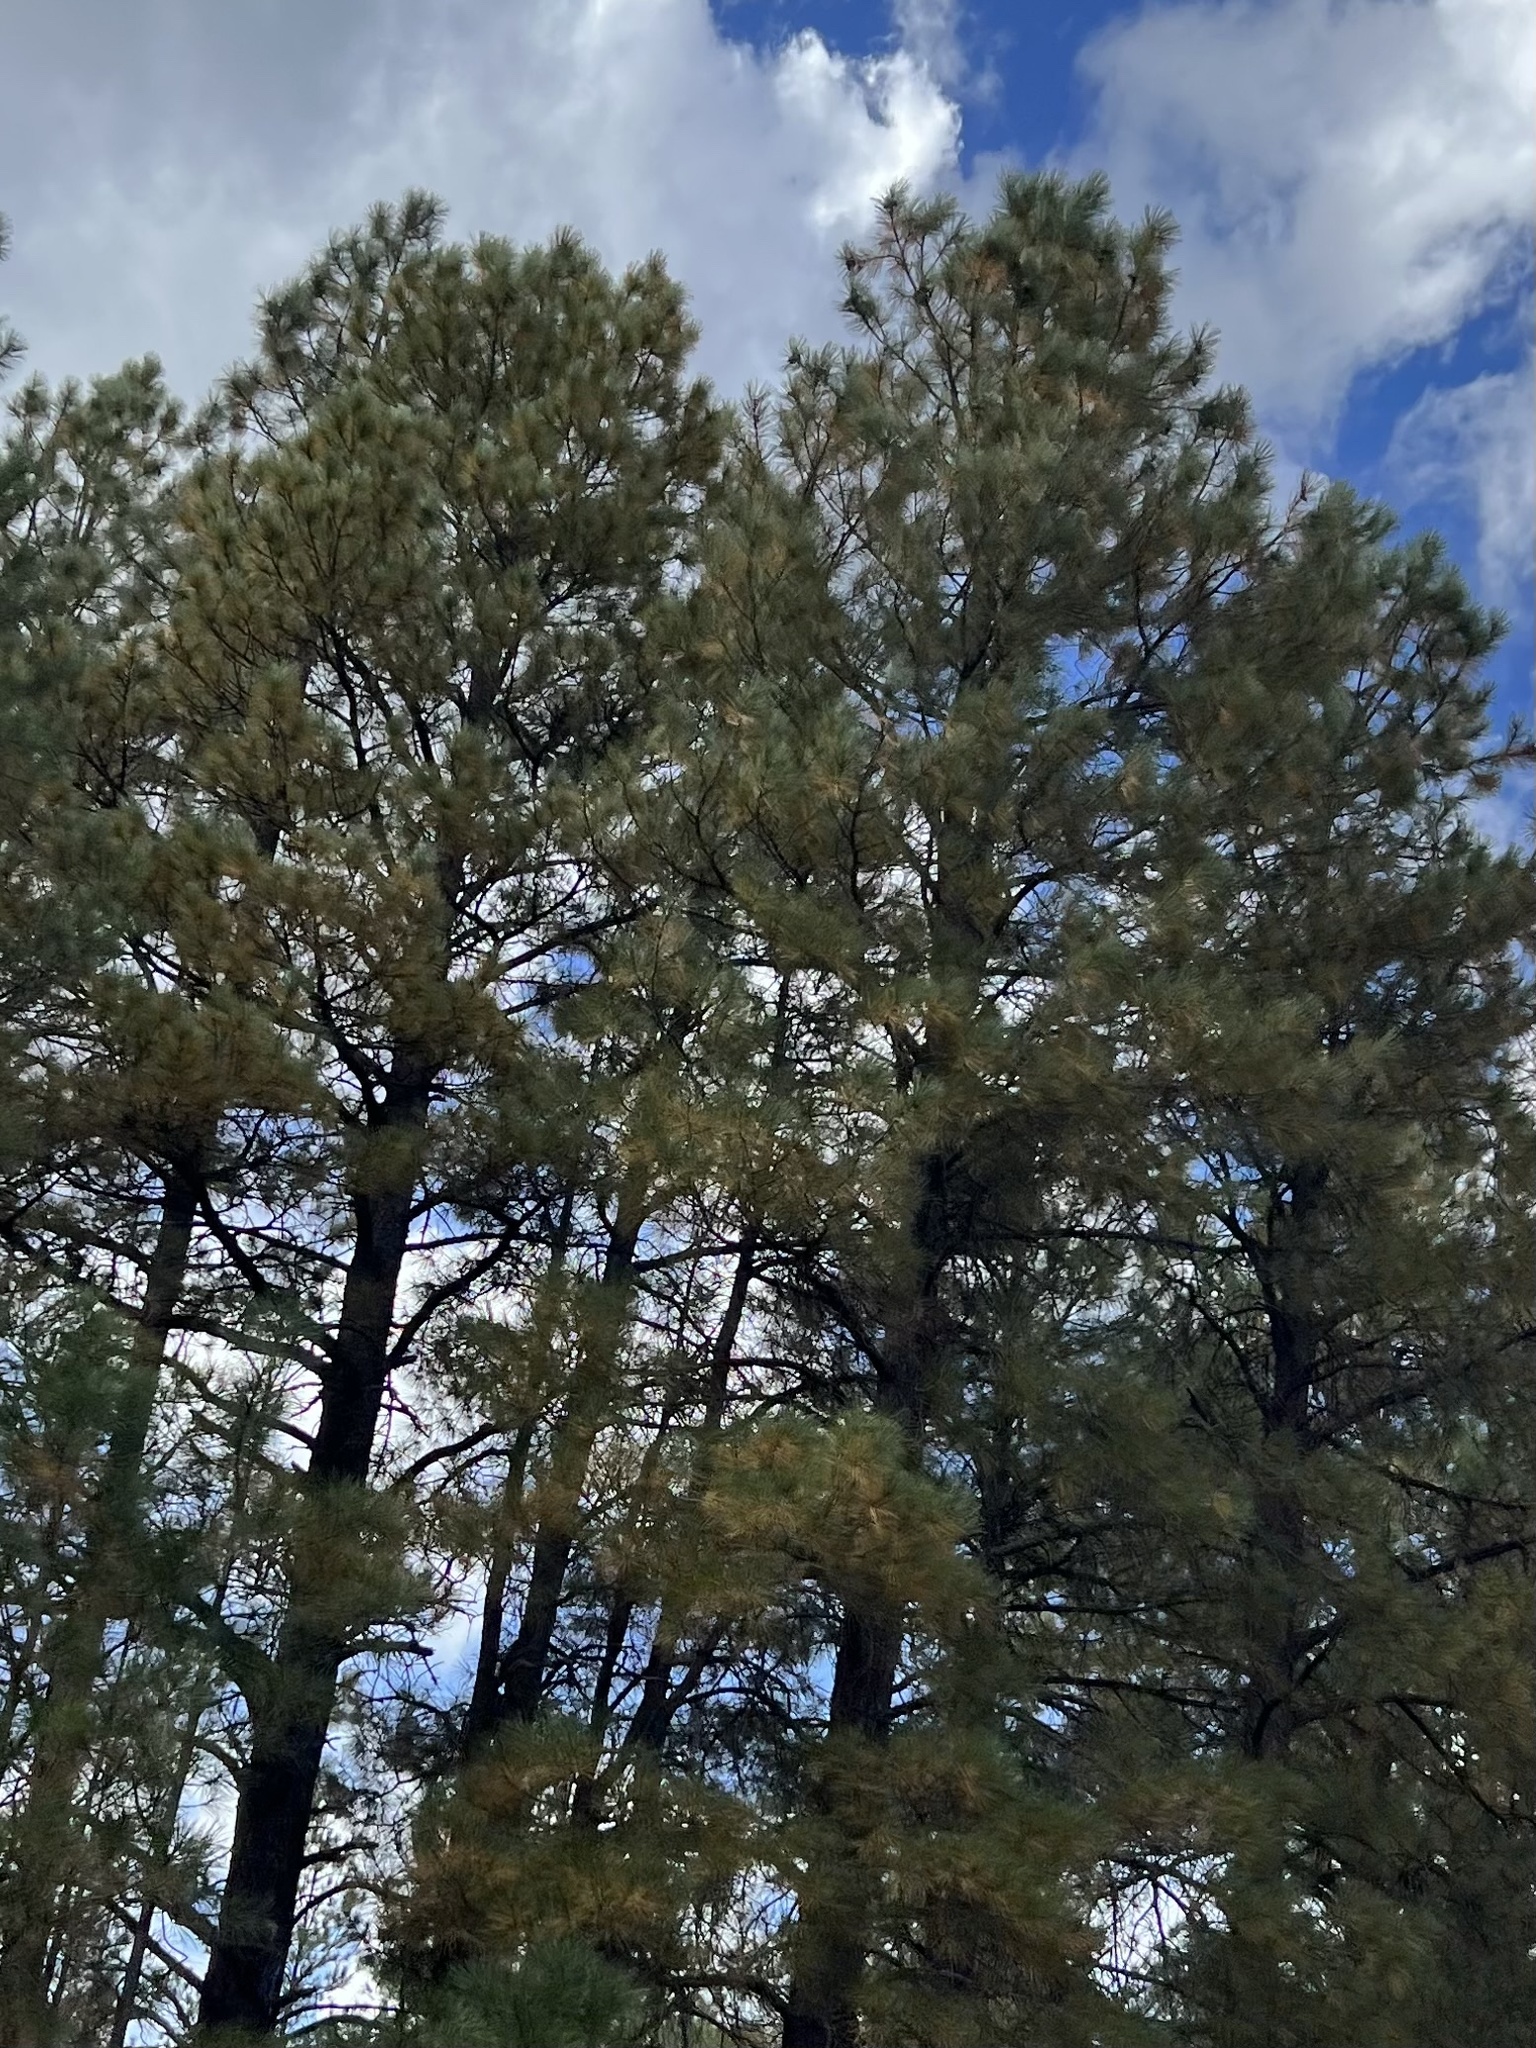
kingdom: Plantae
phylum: Tracheophyta
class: Pinopsida
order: Pinales
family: Pinaceae
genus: Pinus
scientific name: Pinus ponderosa
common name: Western yellow-pine
